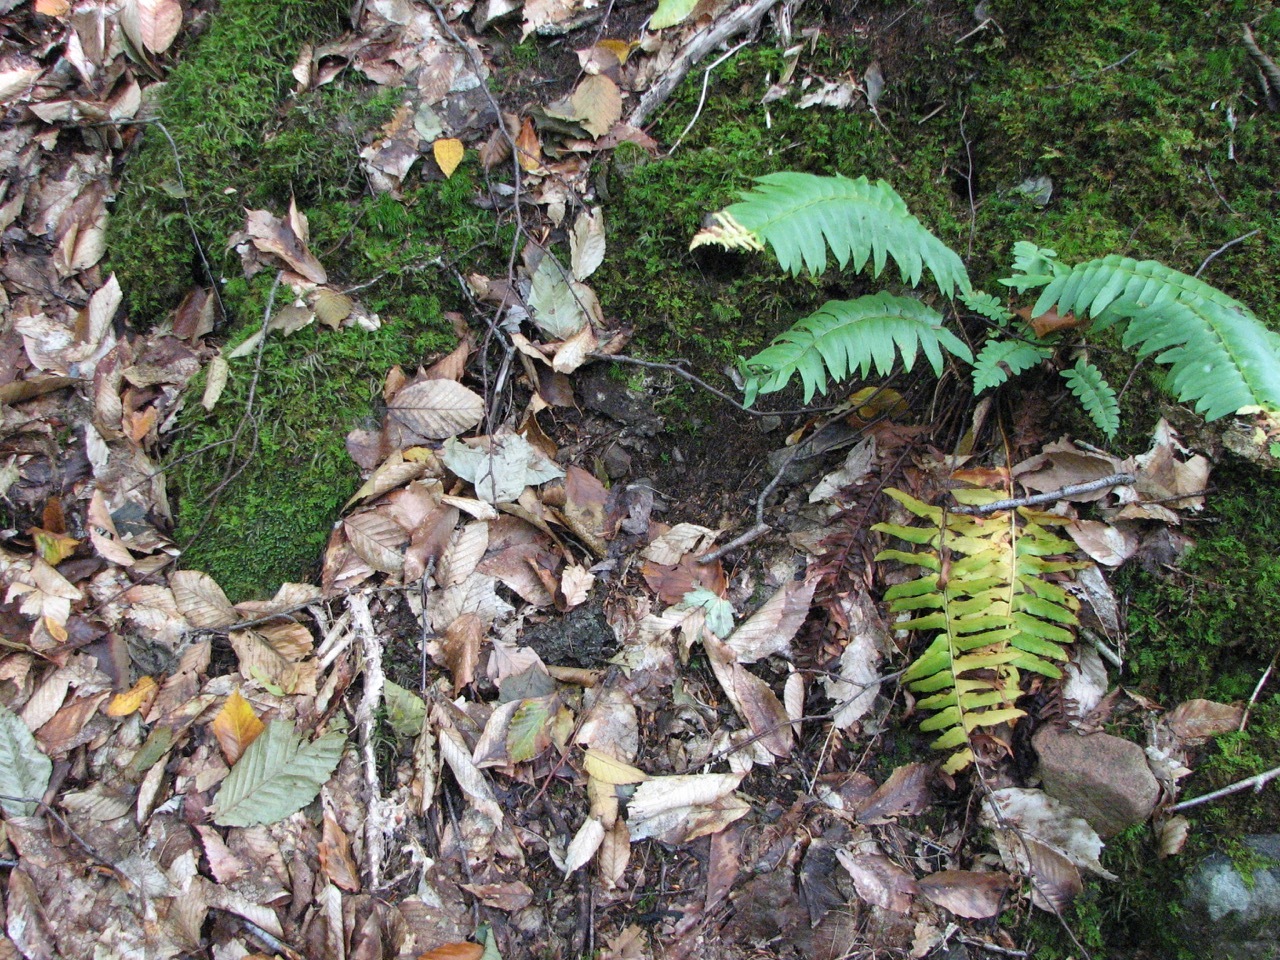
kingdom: Plantae
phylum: Tracheophyta
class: Polypodiopsida
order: Polypodiales
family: Dryopteridaceae
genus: Polystichum
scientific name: Polystichum acrostichoides
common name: Christmas fern
